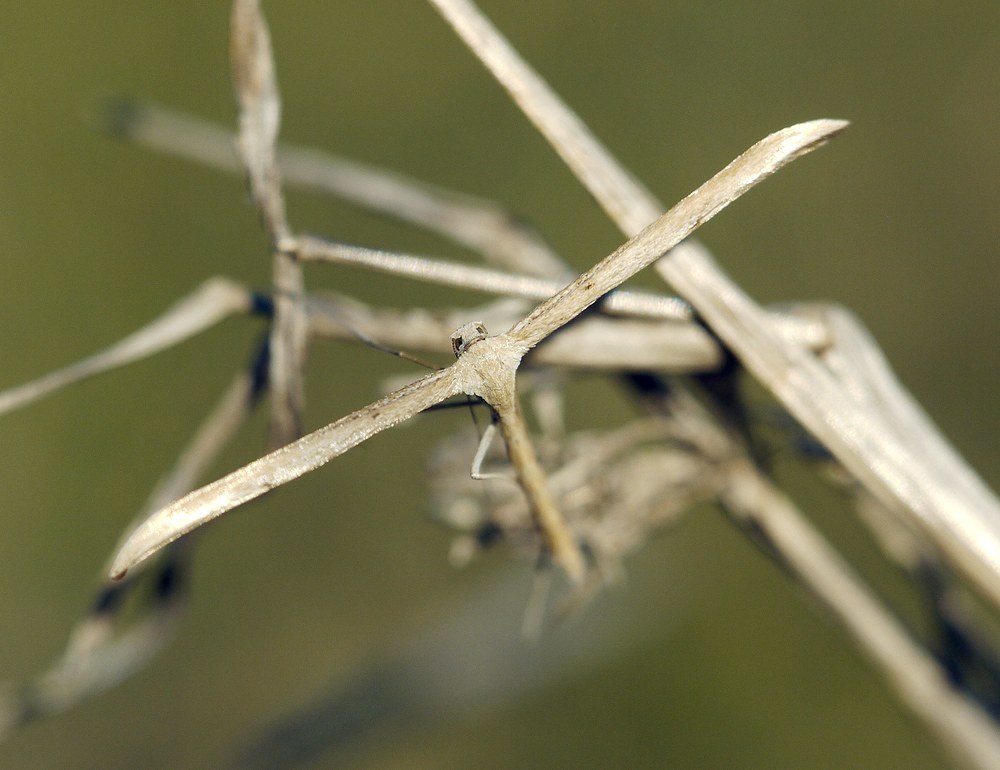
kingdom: Animalia
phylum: Arthropoda
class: Insecta
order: Lepidoptera
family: Pterophoridae
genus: Emmelina
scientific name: Emmelina monodactyla
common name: Common plume
